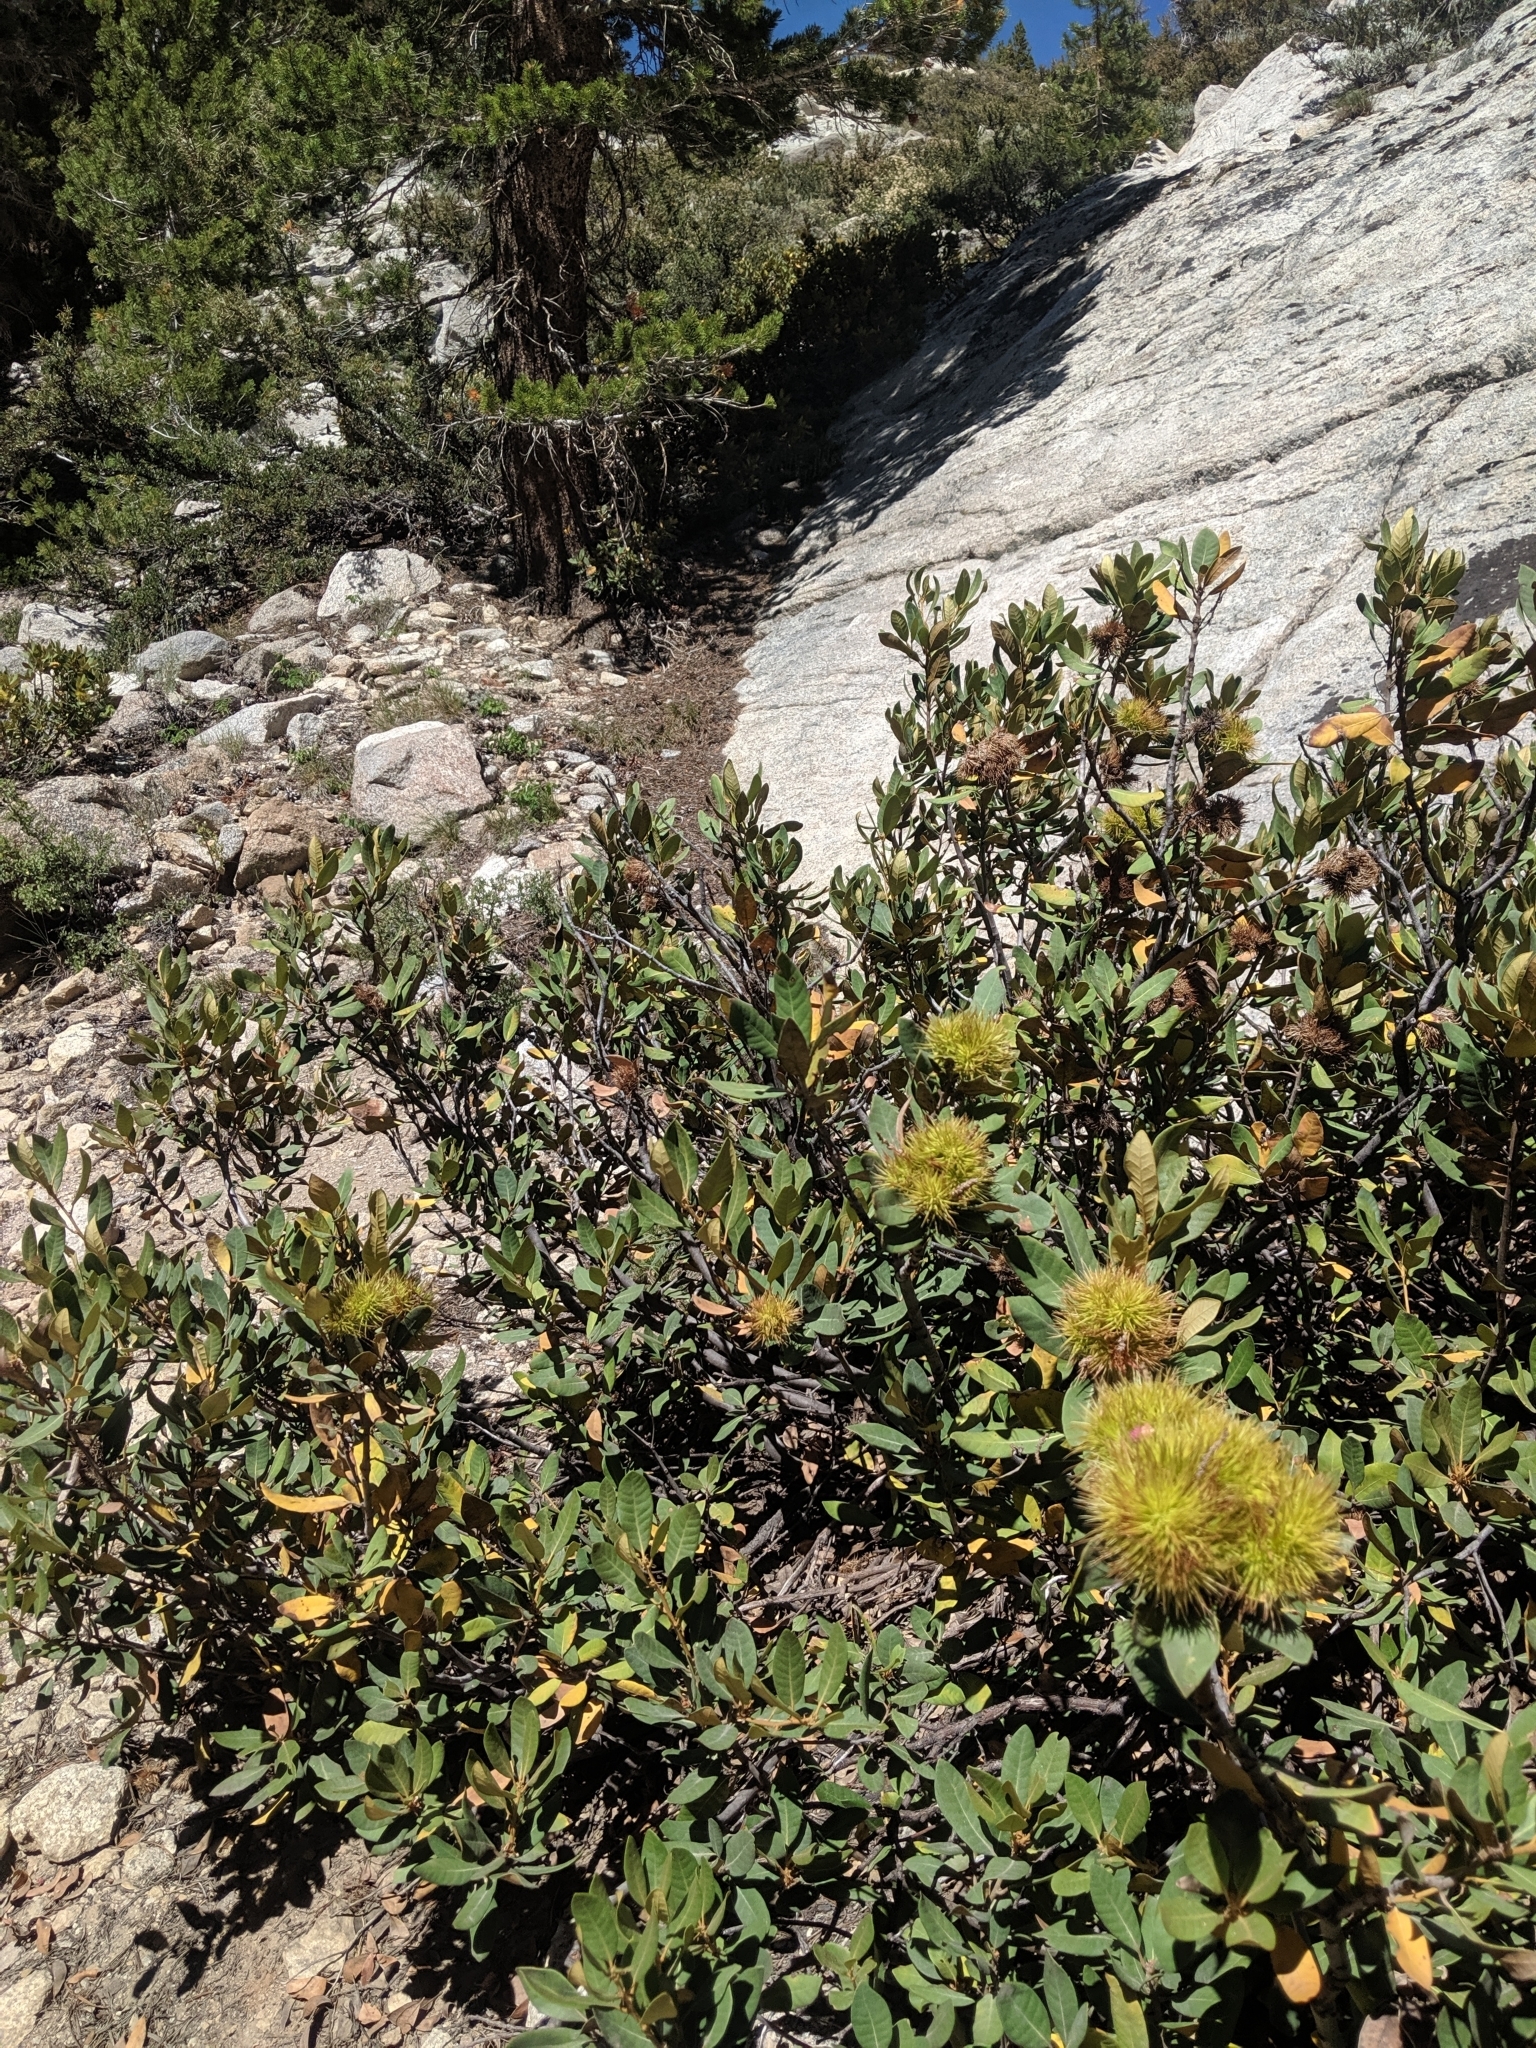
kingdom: Plantae
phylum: Tracheophyta
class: Magnoliopsida
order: Fagales
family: Fagaceae
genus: Chrysolepis
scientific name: Chrysolepis sempervirens
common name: Bush chinquapin
